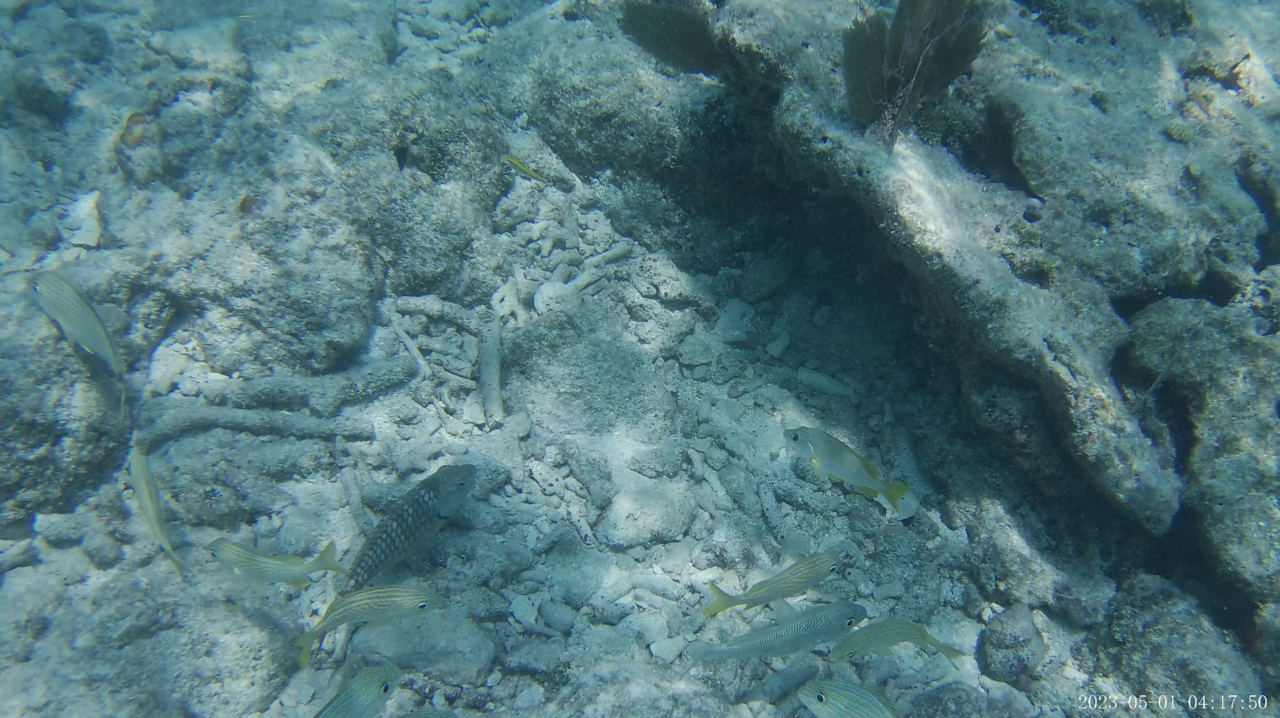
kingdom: Animalia
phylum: Chordata
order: Perciformes
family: Lutjanidae
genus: Lutjanus
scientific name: Lutjanus apodus
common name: Schoolmaster
